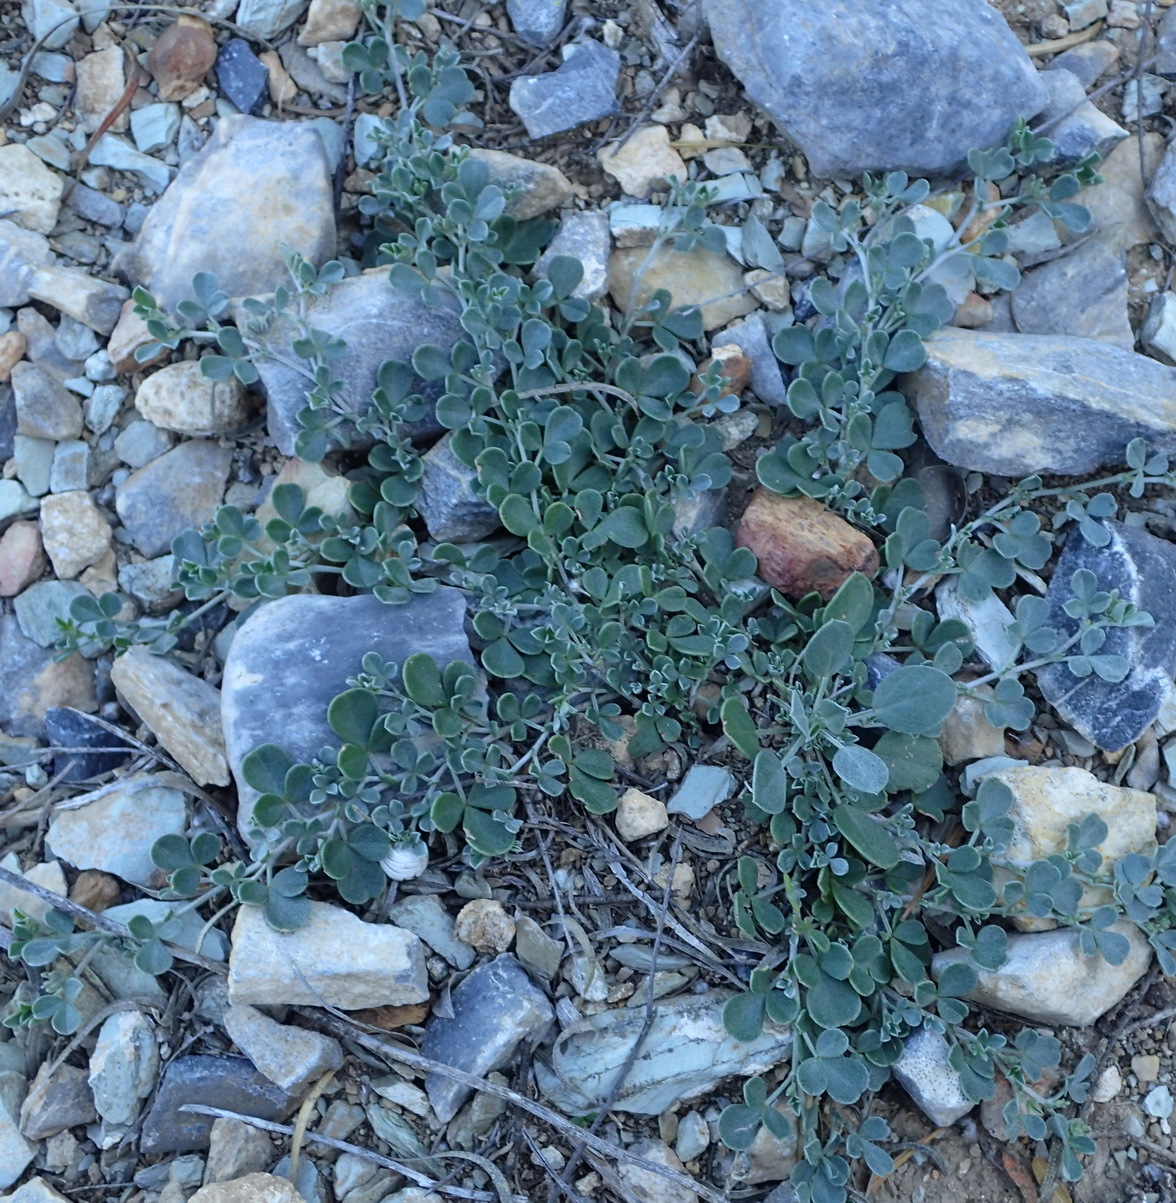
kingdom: Plantae
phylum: Tracheophyta
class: Magnoliopsida
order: Fabales
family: Fabaceae
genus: Lotononis
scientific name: Lotononis pumila
